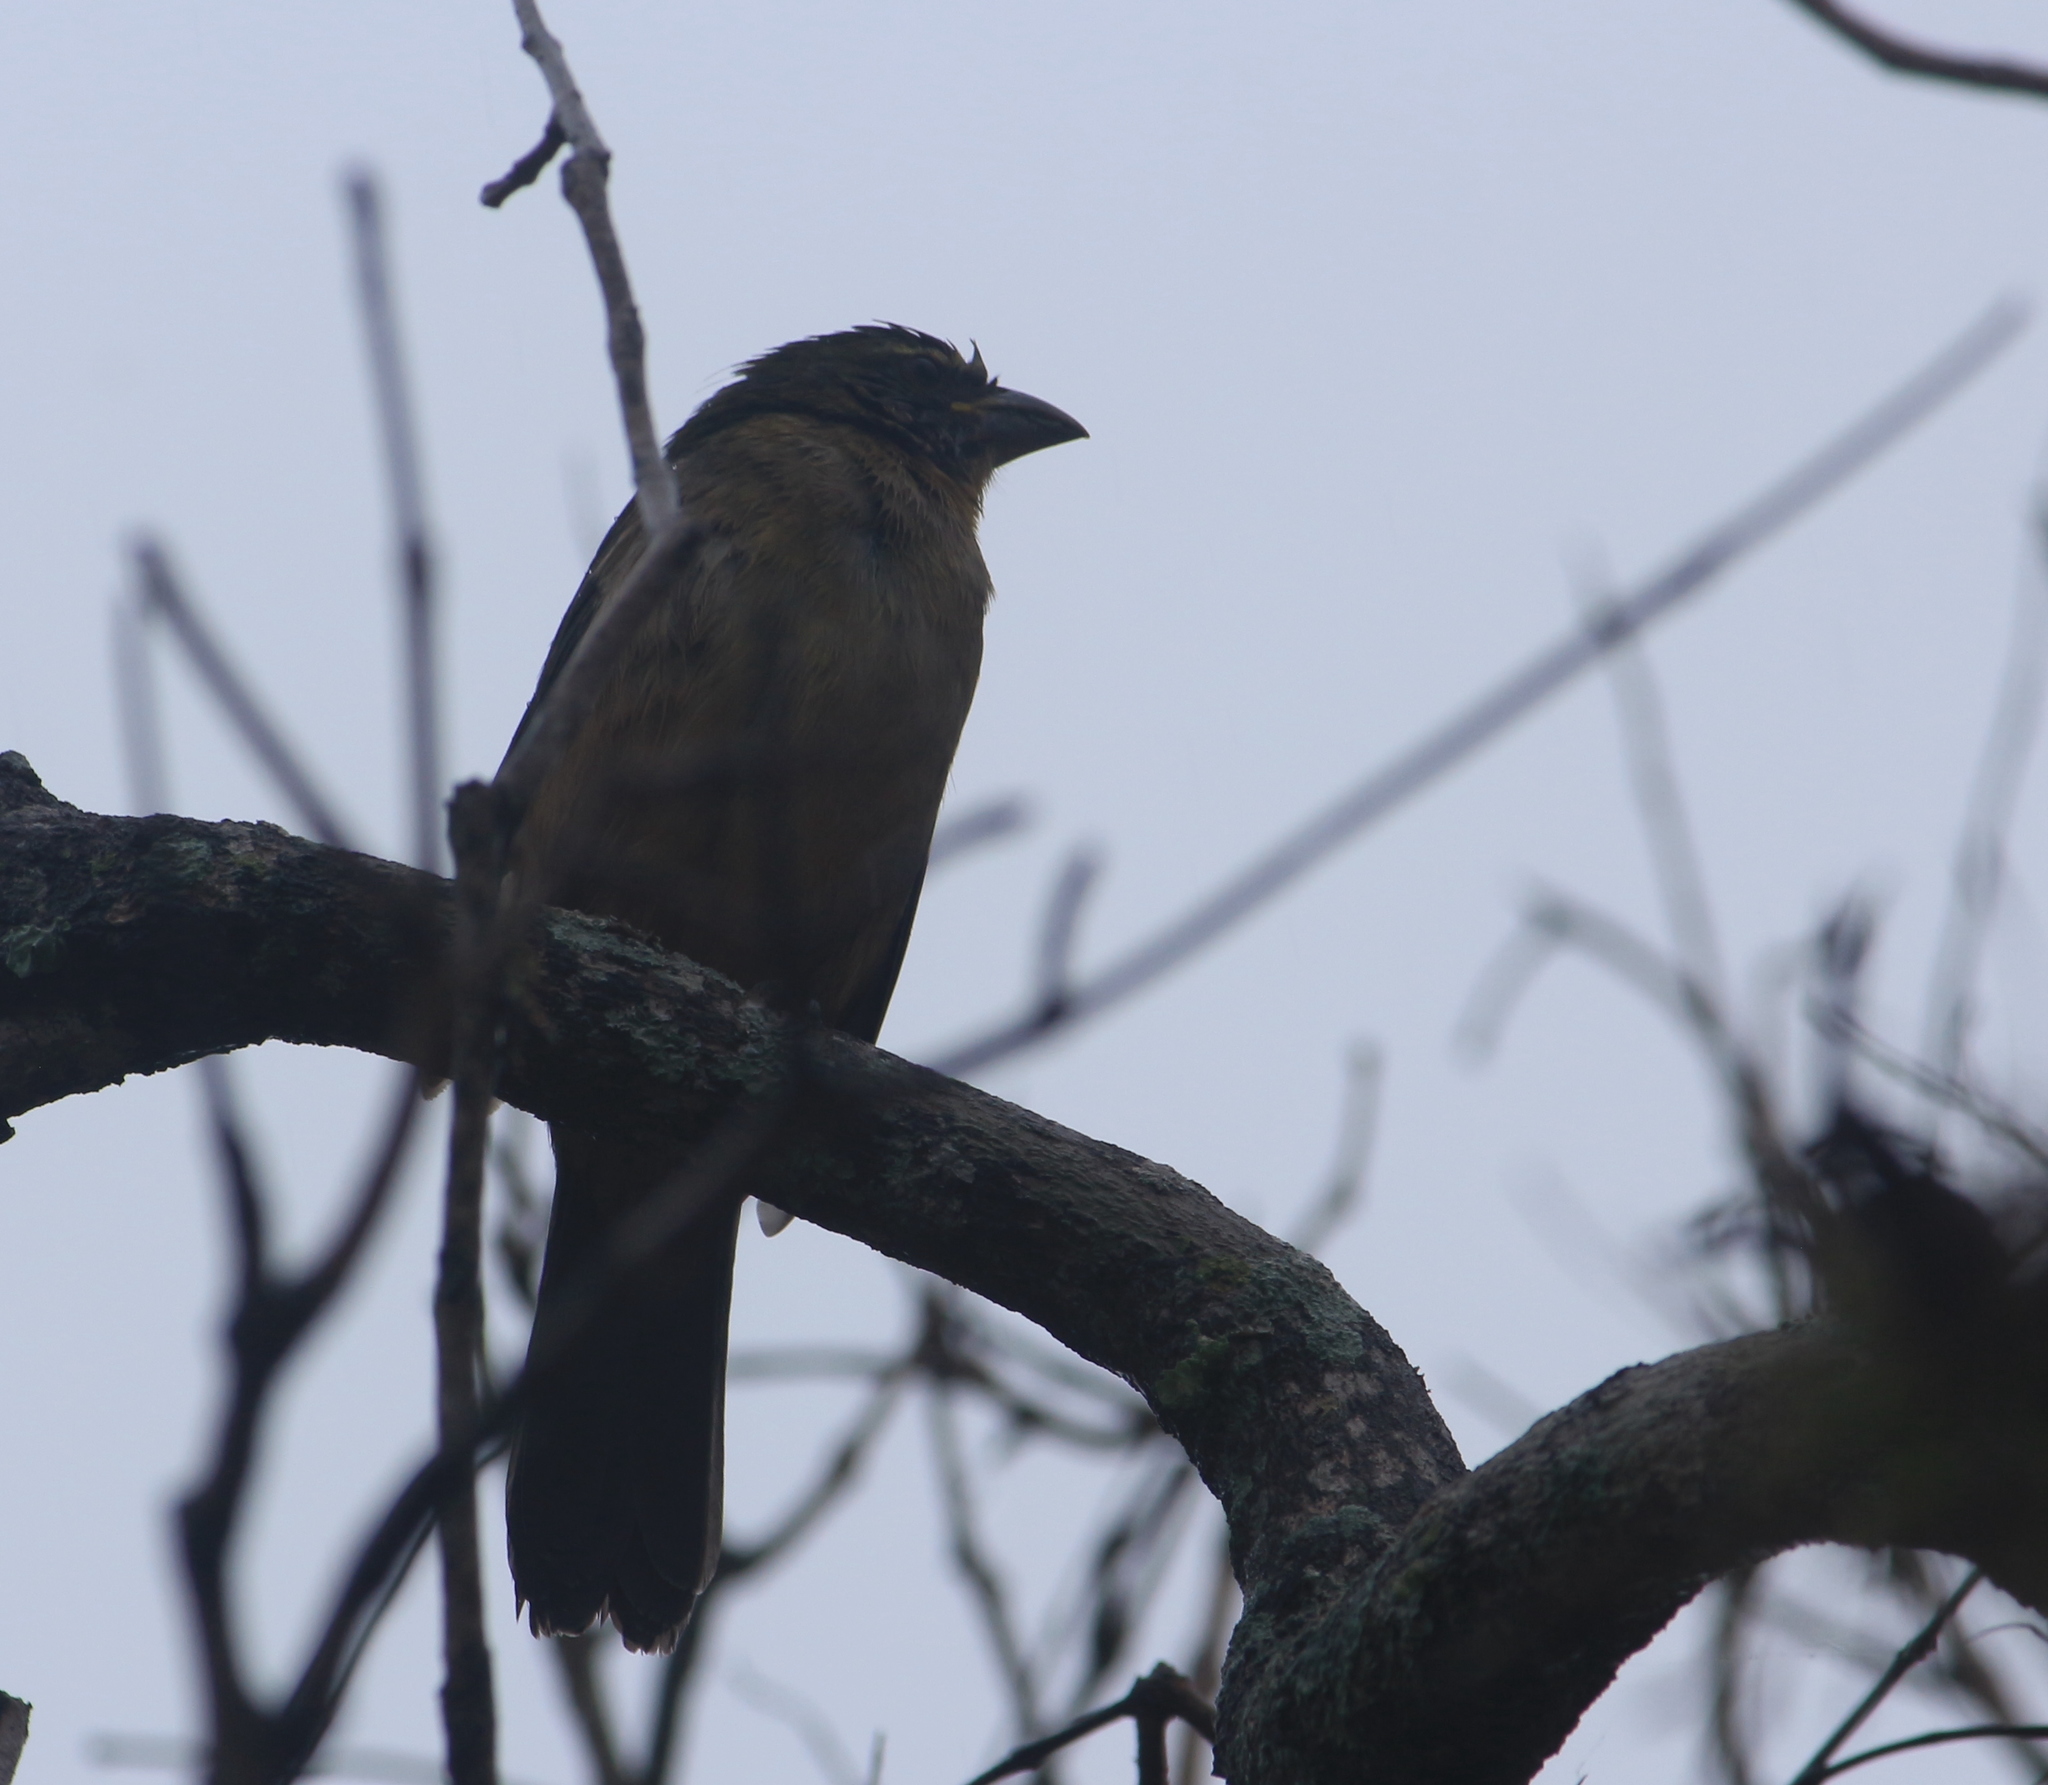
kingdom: Animalia
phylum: Chordata
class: Aves
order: Passeriformes
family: Thraupidae
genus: Saltator
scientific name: Saltator coerulescens
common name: Grayish saltator
